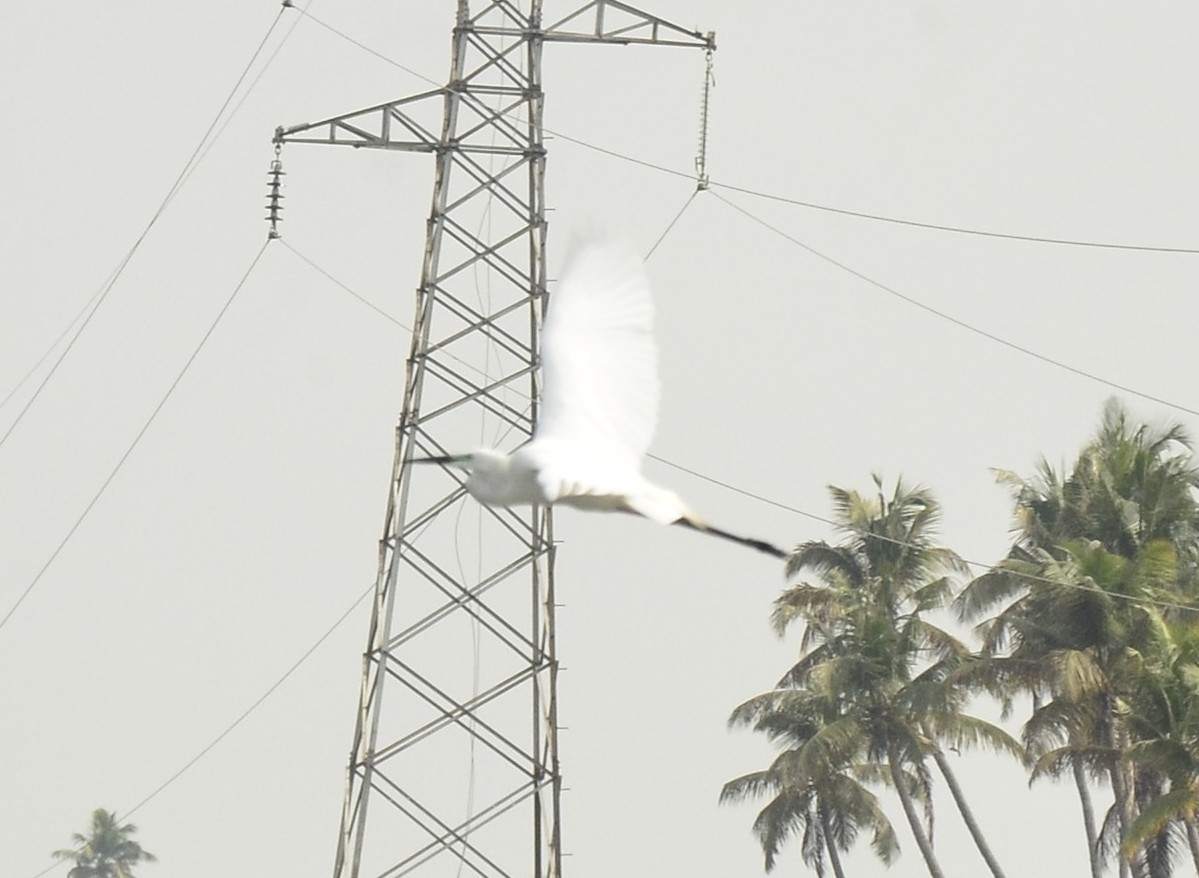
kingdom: Animalia
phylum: Chordata
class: Aves
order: Pelecaniformes
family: Ardeidae
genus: Ardea
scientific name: Ardea alba
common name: Great egret
